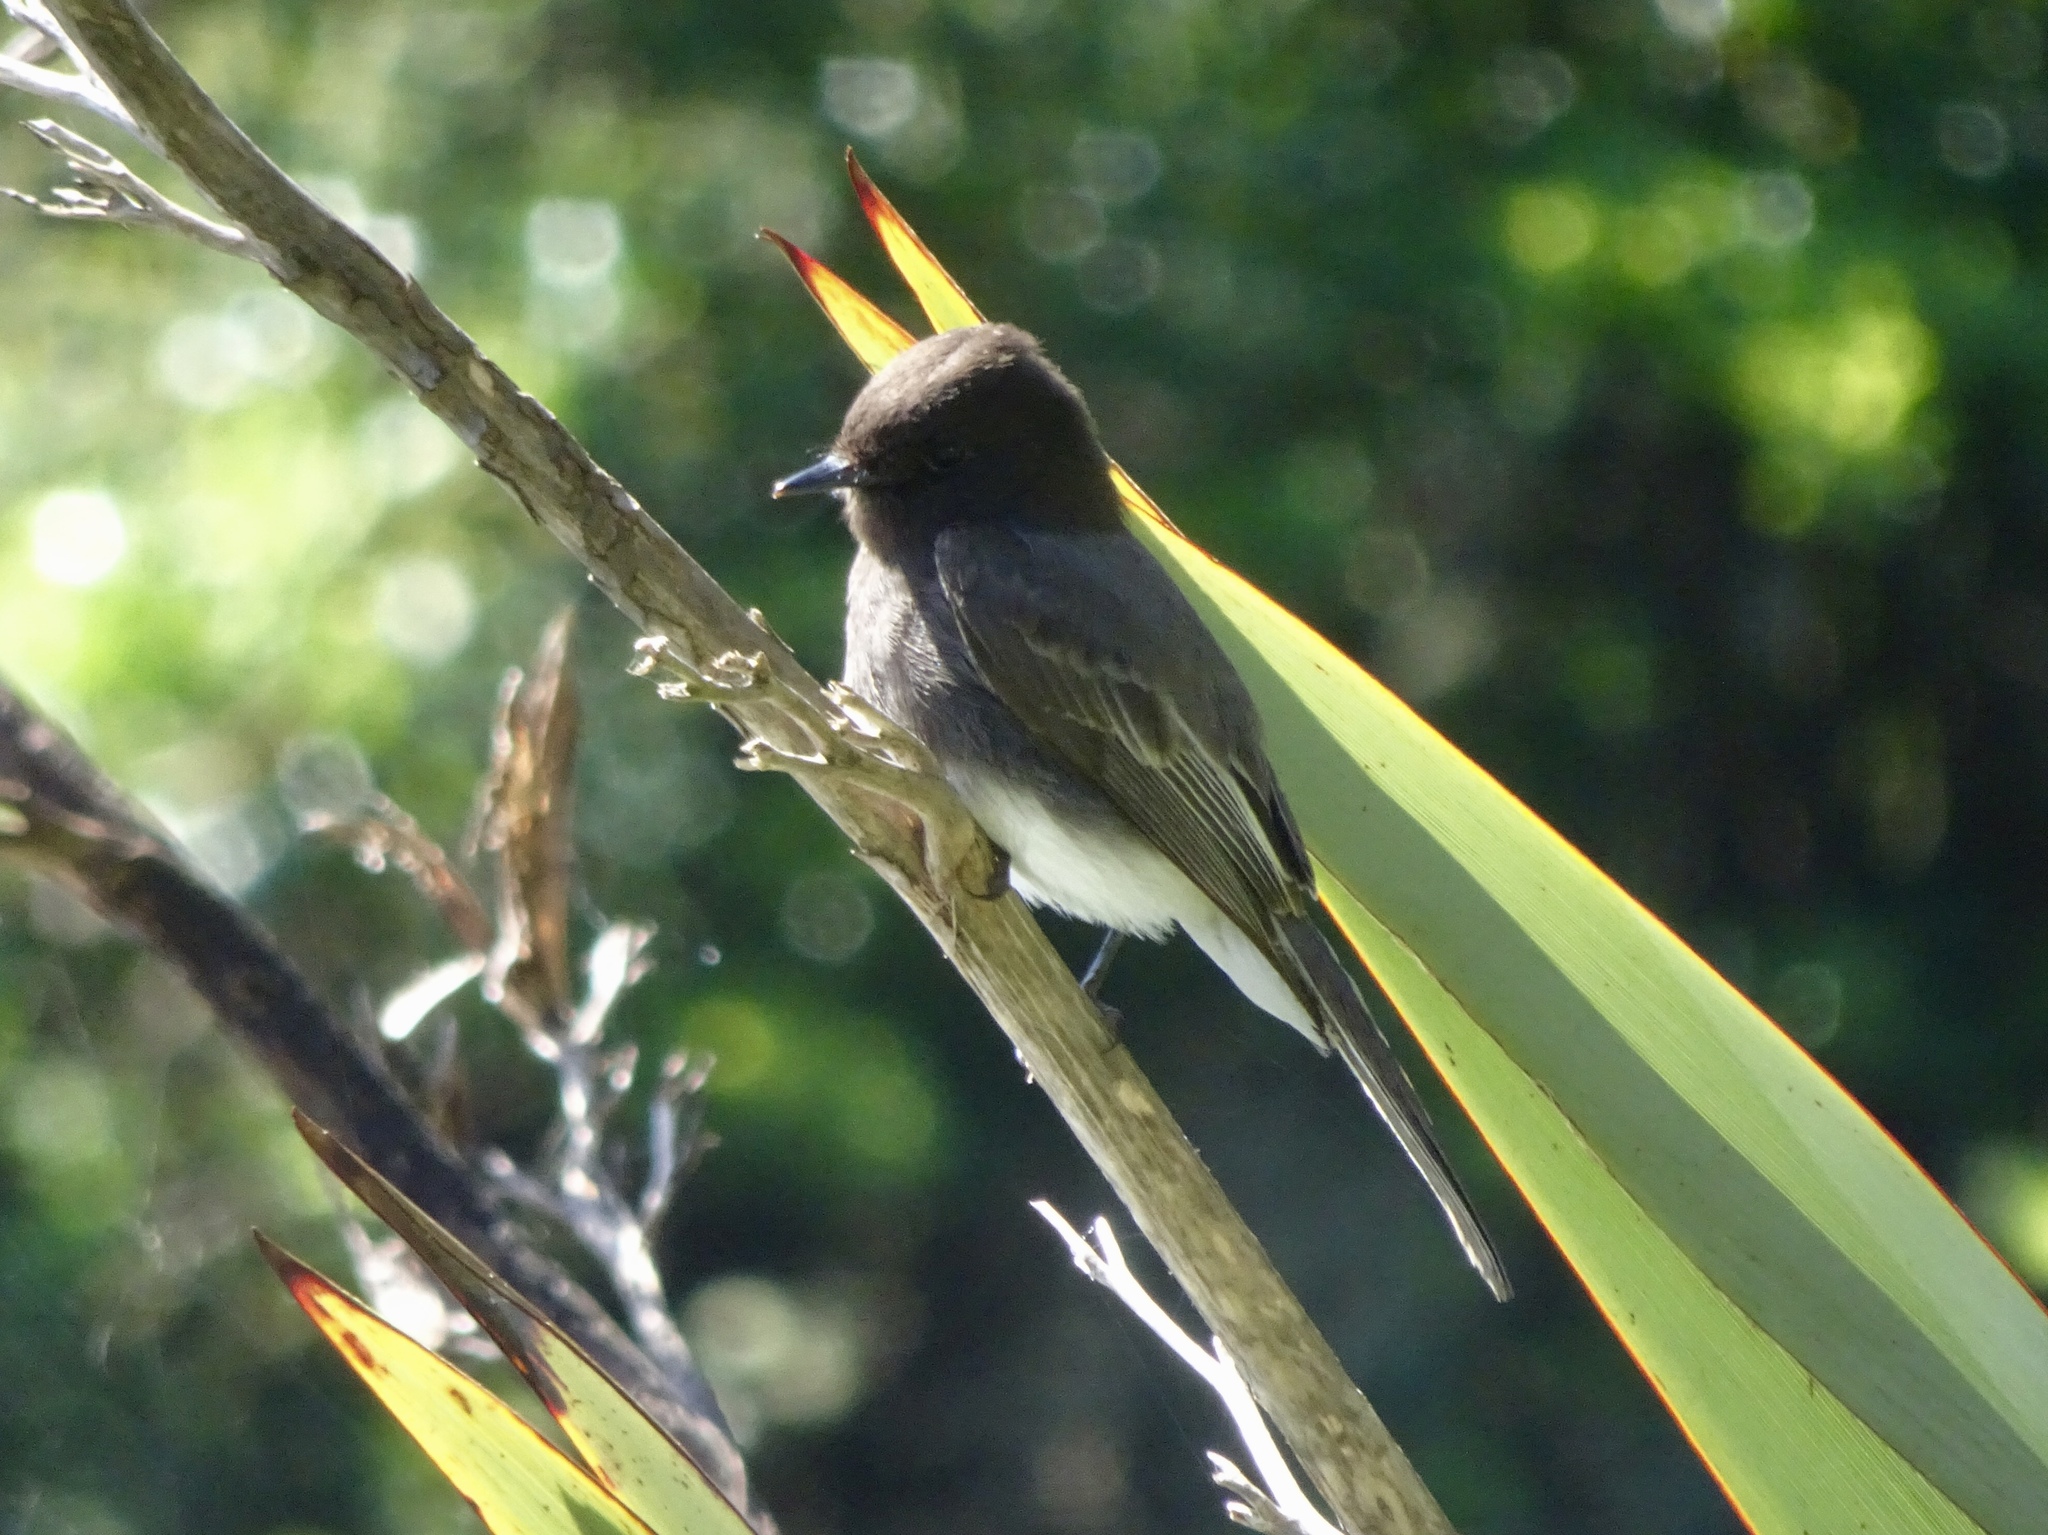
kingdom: Animalia
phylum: Chordata
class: Aves
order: Passeriformes
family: Tyrannidae
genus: Sayornis
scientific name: Sayornis nigricans
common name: Black phoebe
